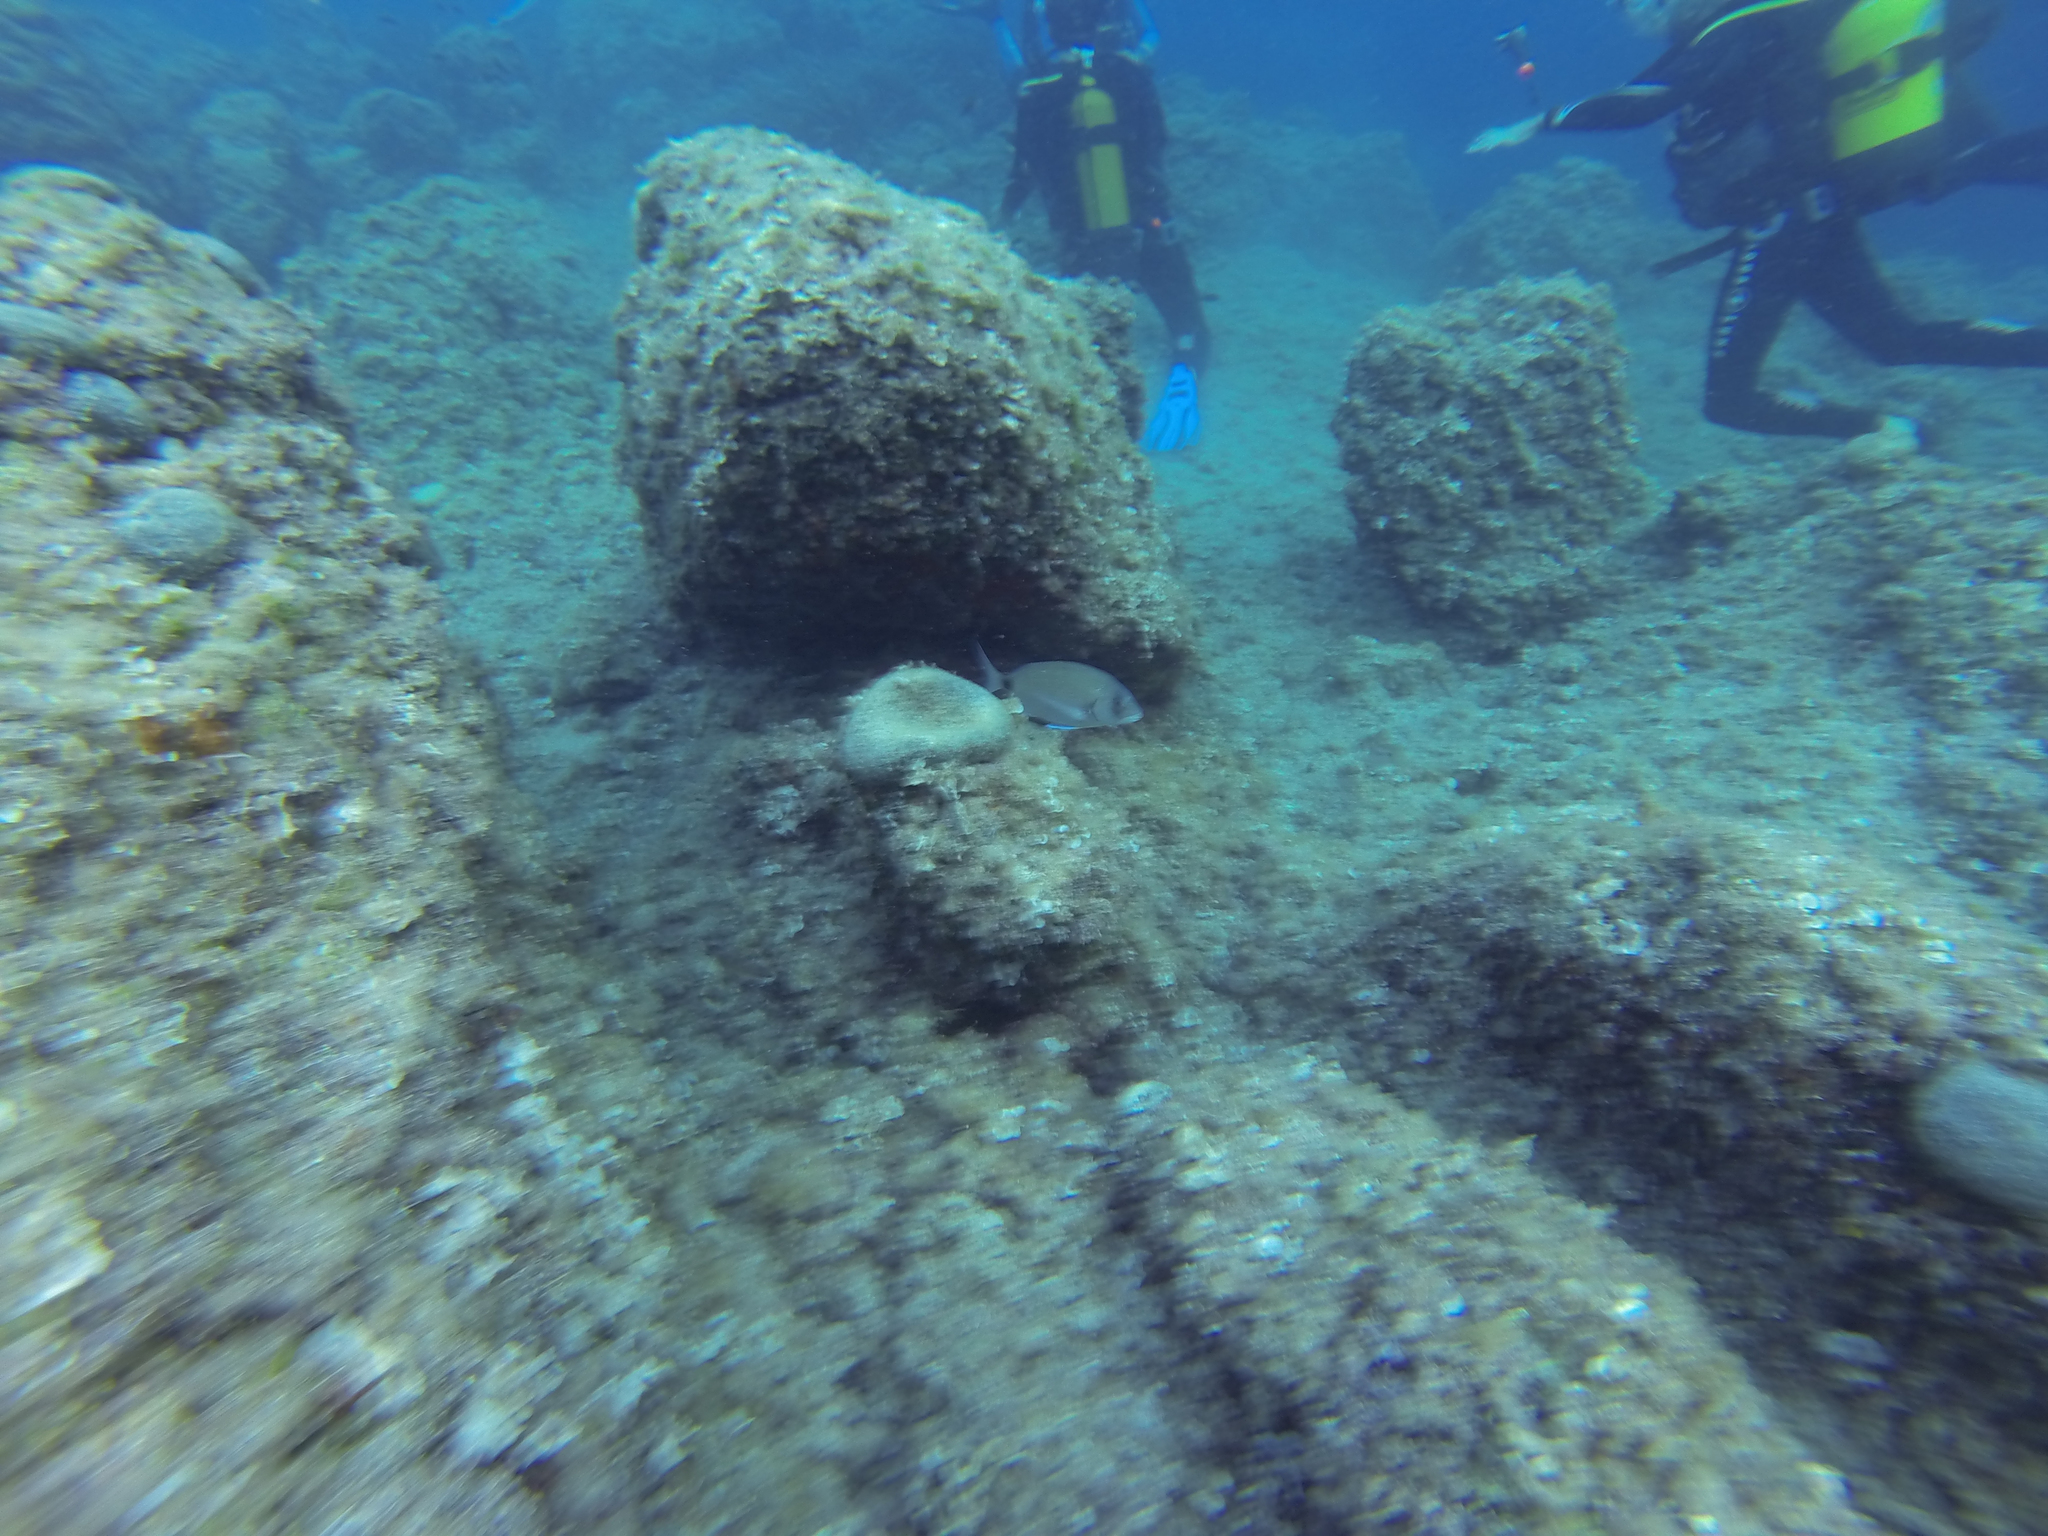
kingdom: Animalia
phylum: Chordata
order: Perciformes
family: Sparidae
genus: Diplodus
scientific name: Diplodus sargus
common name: White seabream
